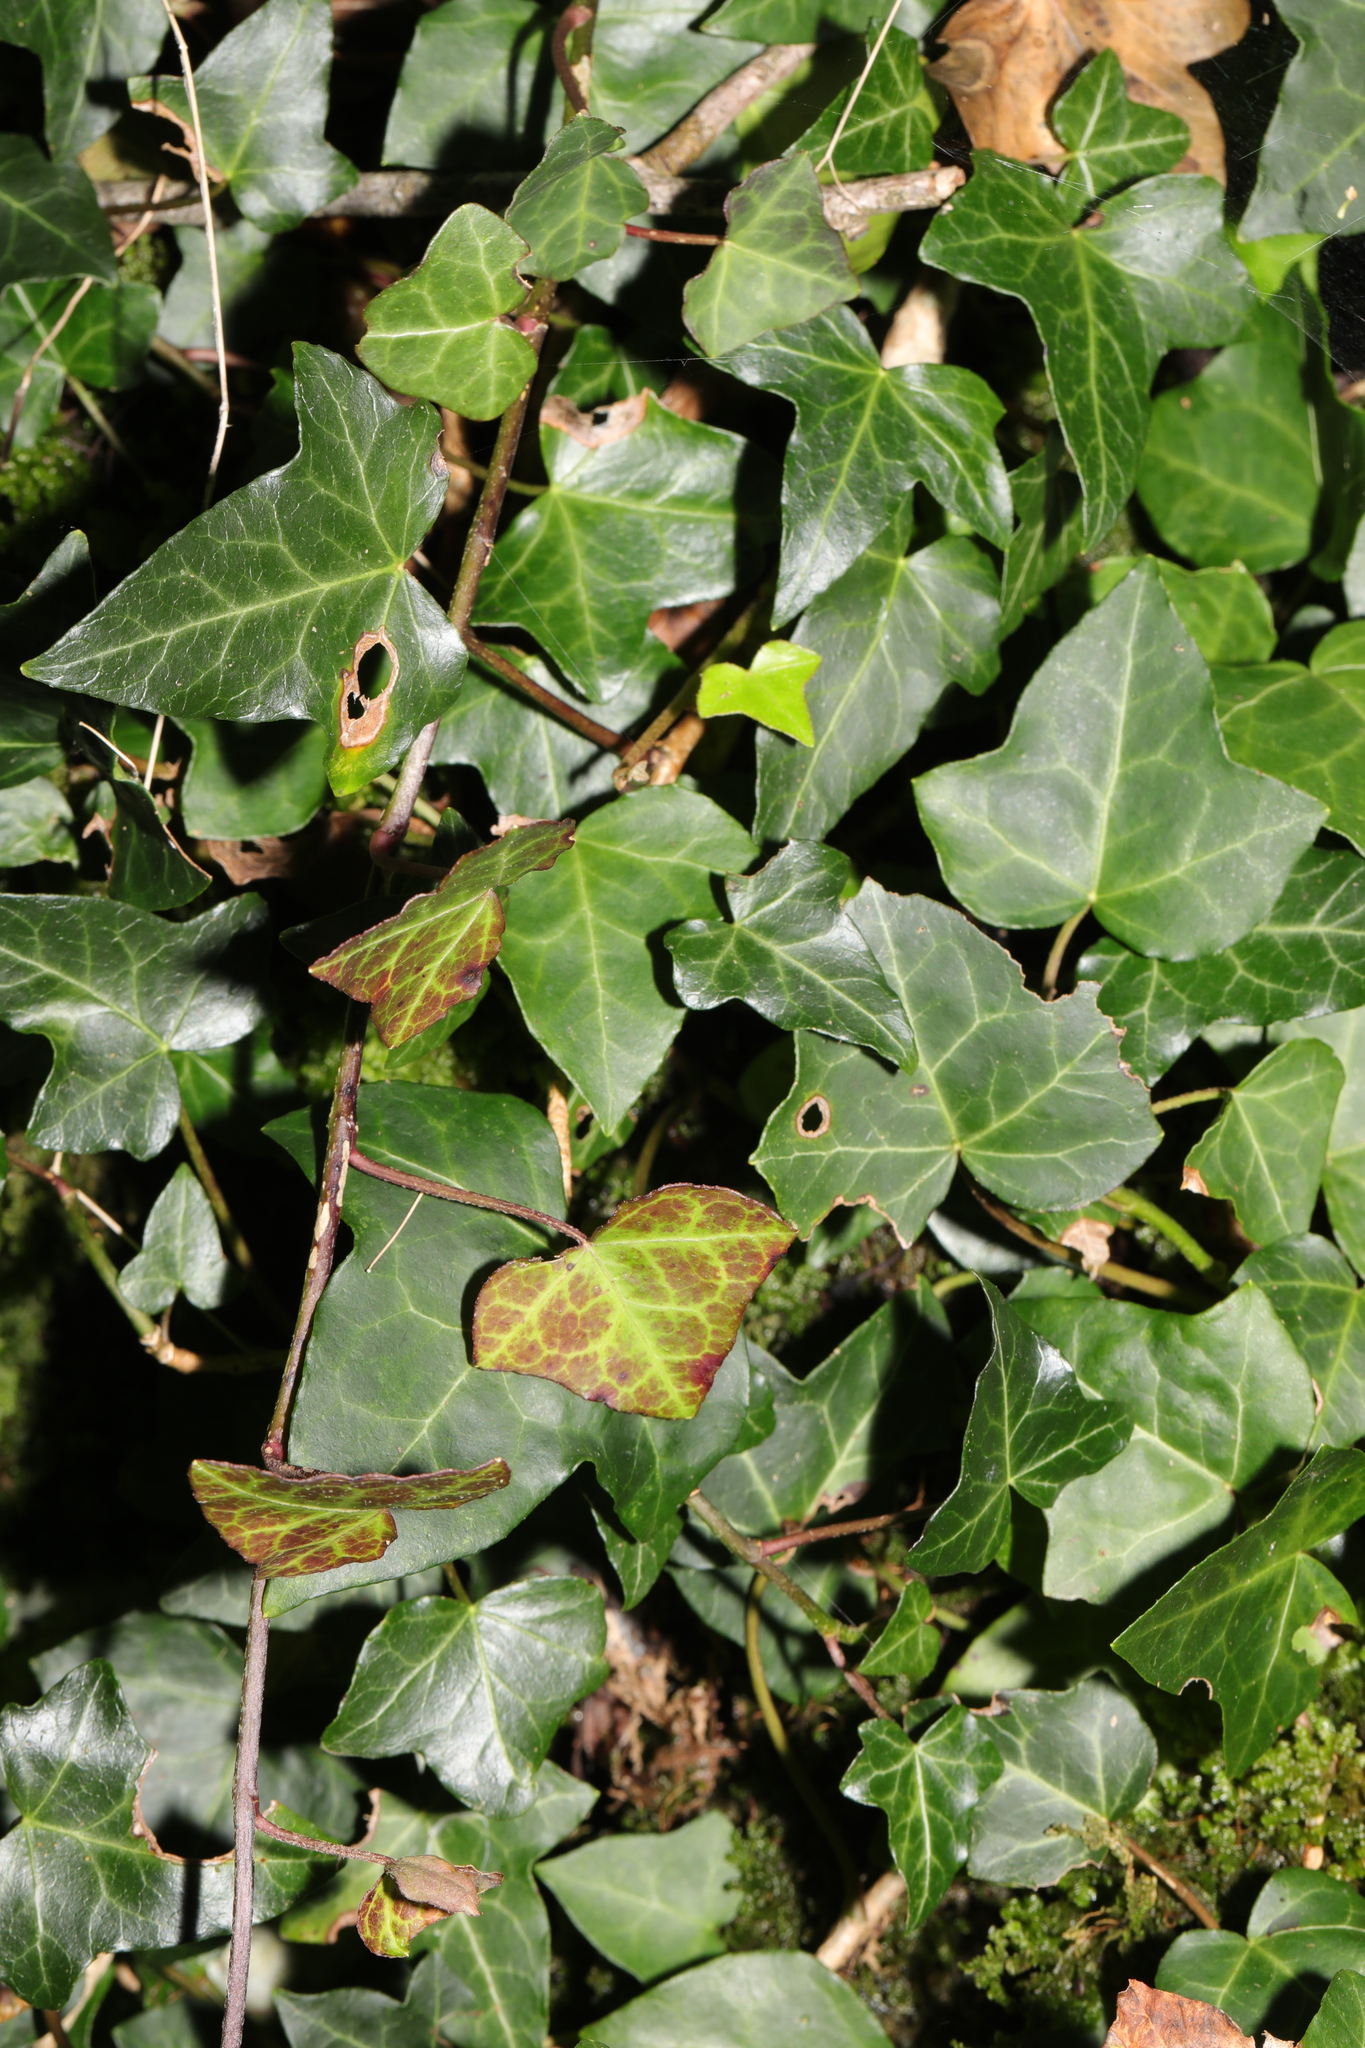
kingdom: Plantae
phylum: Tracheophyta
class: Magnoliopsida
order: Apiales
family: Araliaceae
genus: Hedera
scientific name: Hedera helix
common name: Ivy
